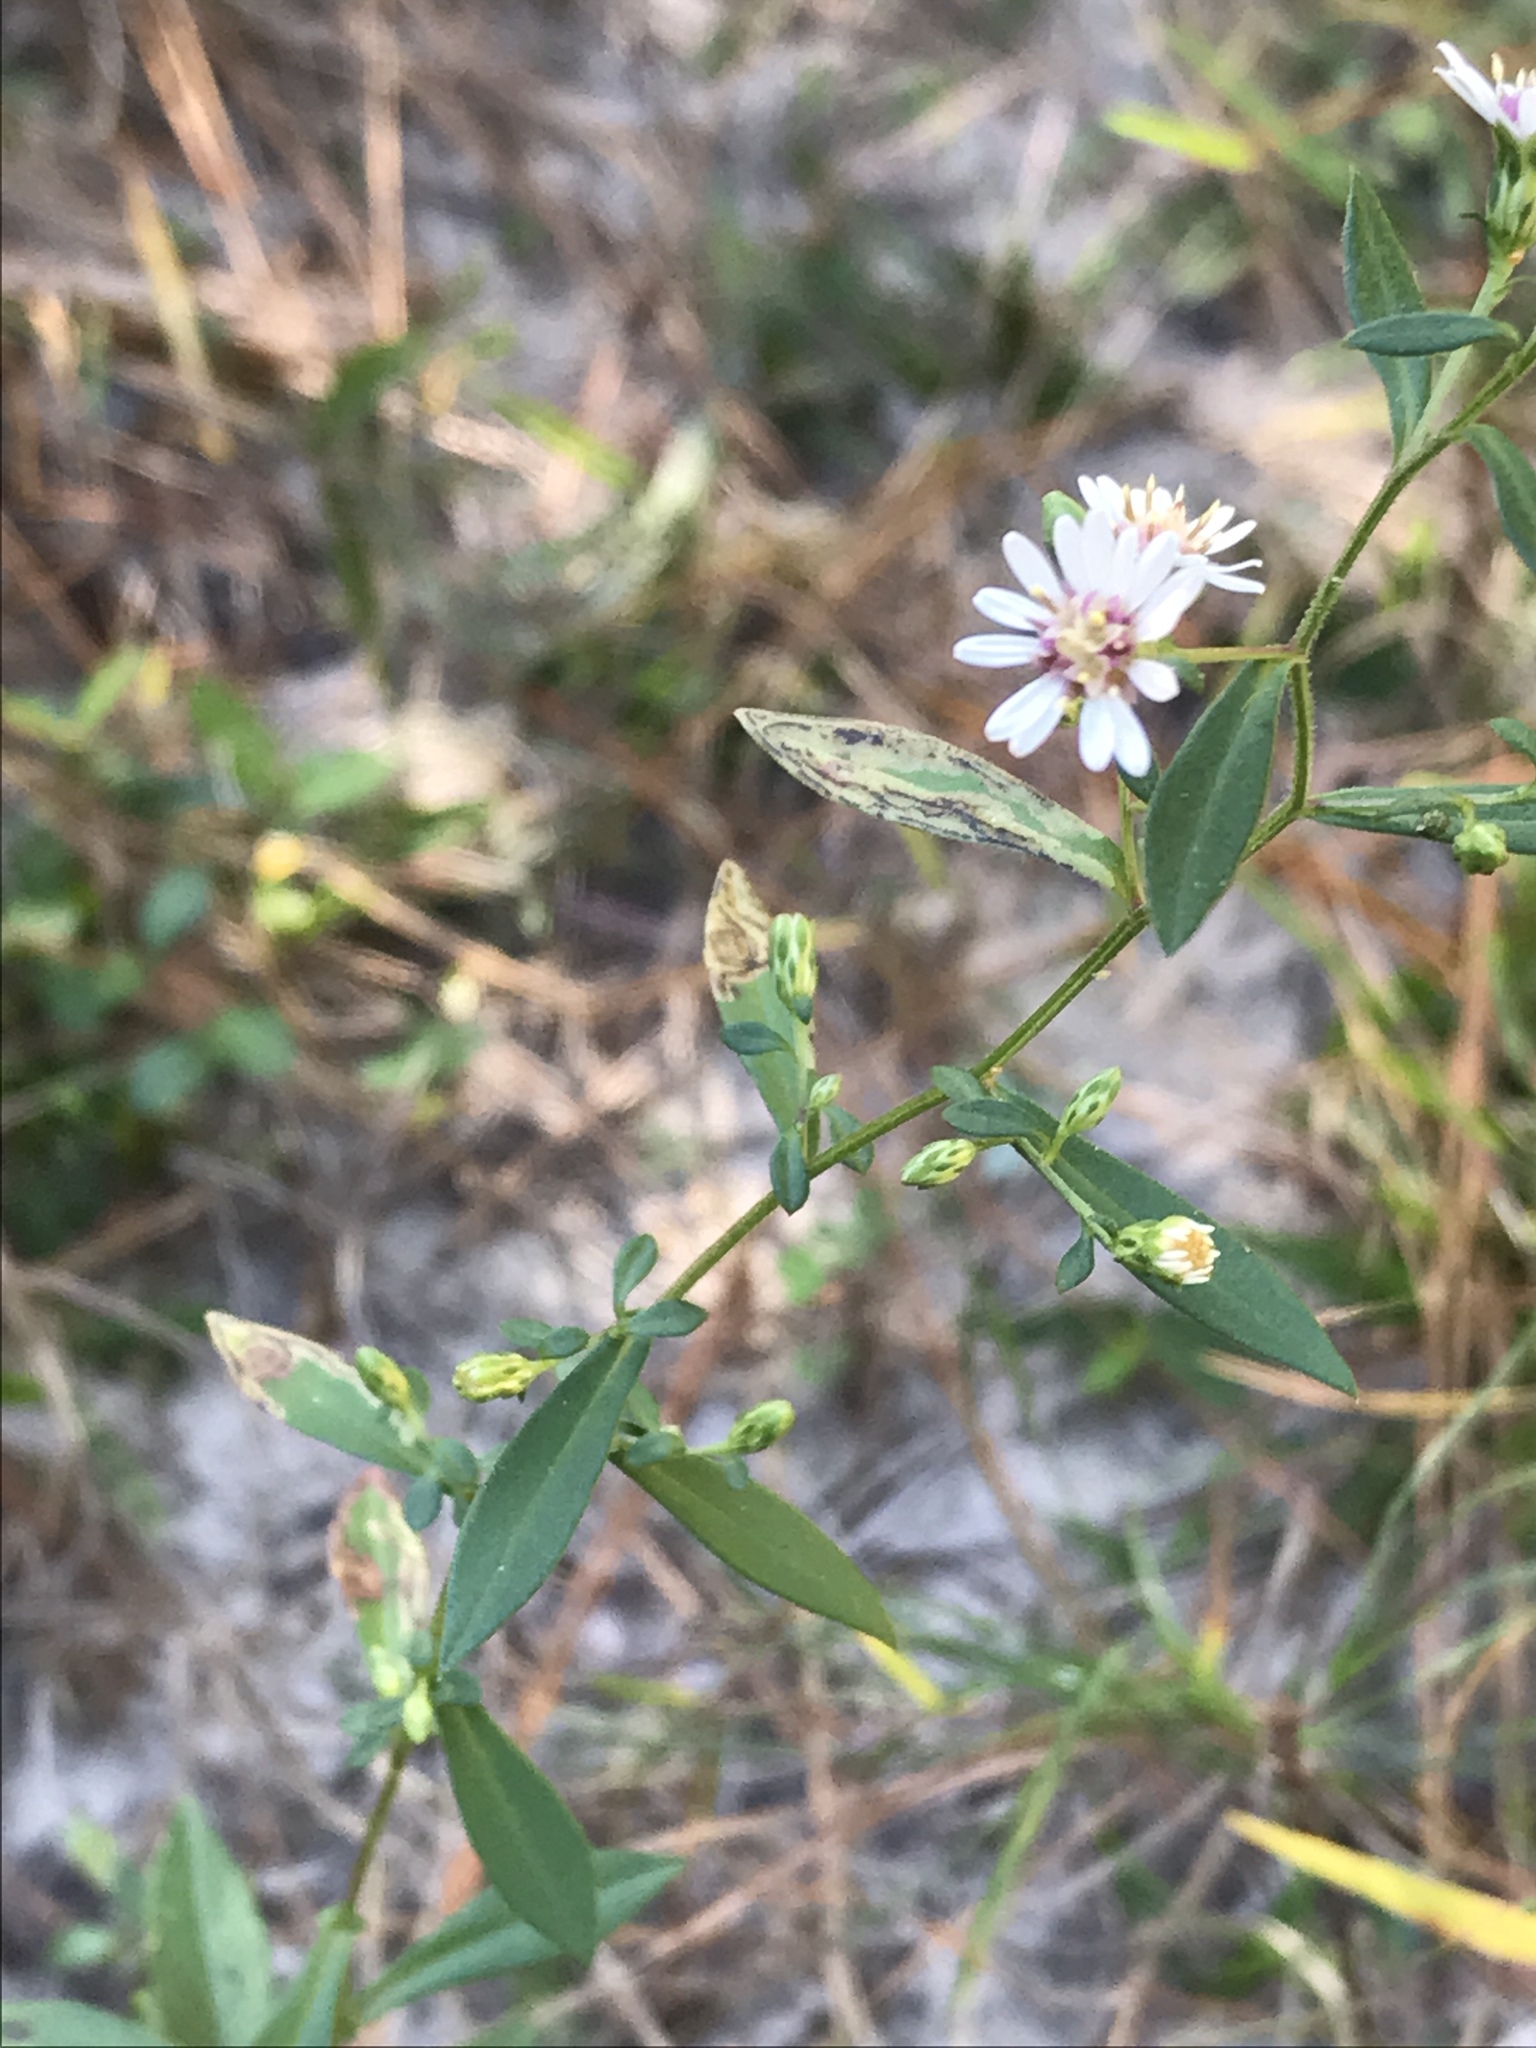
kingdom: Plantae
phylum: Tracheophyta
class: Magnoliopsida
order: Asterales
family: Asteraceae
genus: Symphyotrichum
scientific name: Symphyotrichum lanceolatum
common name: Panicled aster
